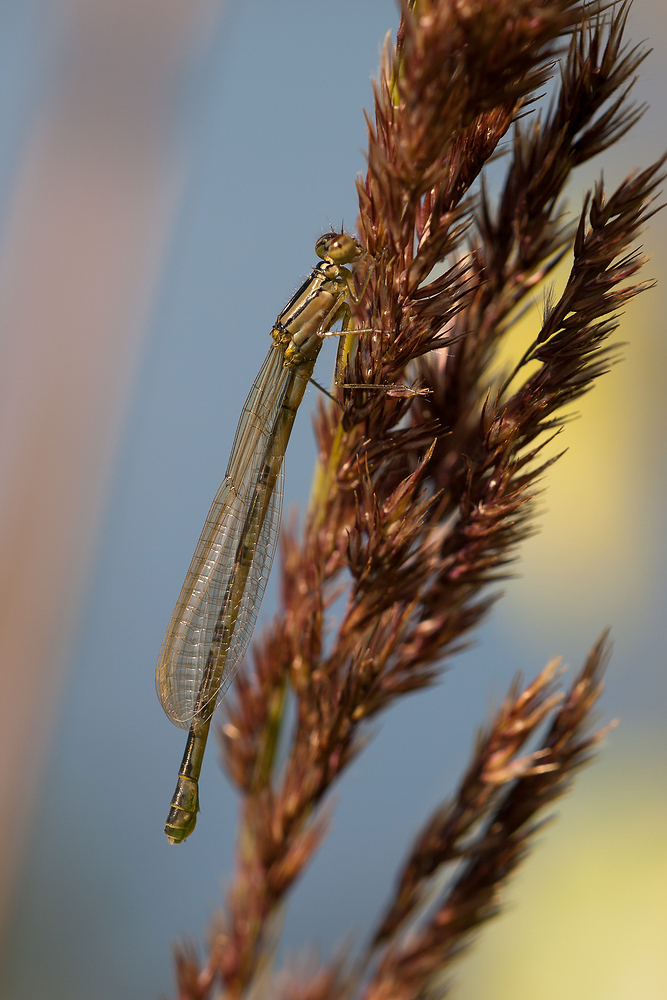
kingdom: Animalia
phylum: Arthropoda
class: Insecta
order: Odonata
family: Coenagrionidae
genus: Enallagma
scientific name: Enallagma cyathigerum
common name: Common blue damselfly
